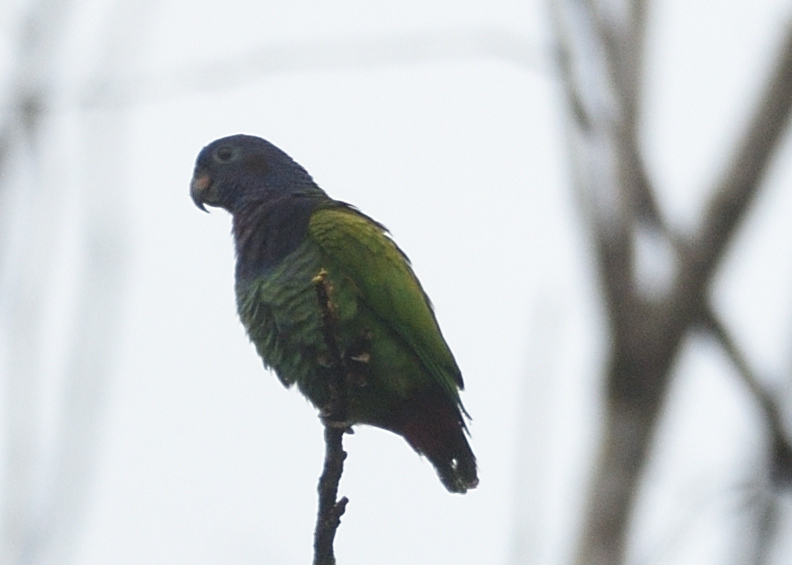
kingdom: Animalia
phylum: Chordata
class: Aves
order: Psittaciformes
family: Psittacidae
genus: Pionus
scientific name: Pionus menstruus
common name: Blue-headed parrot
